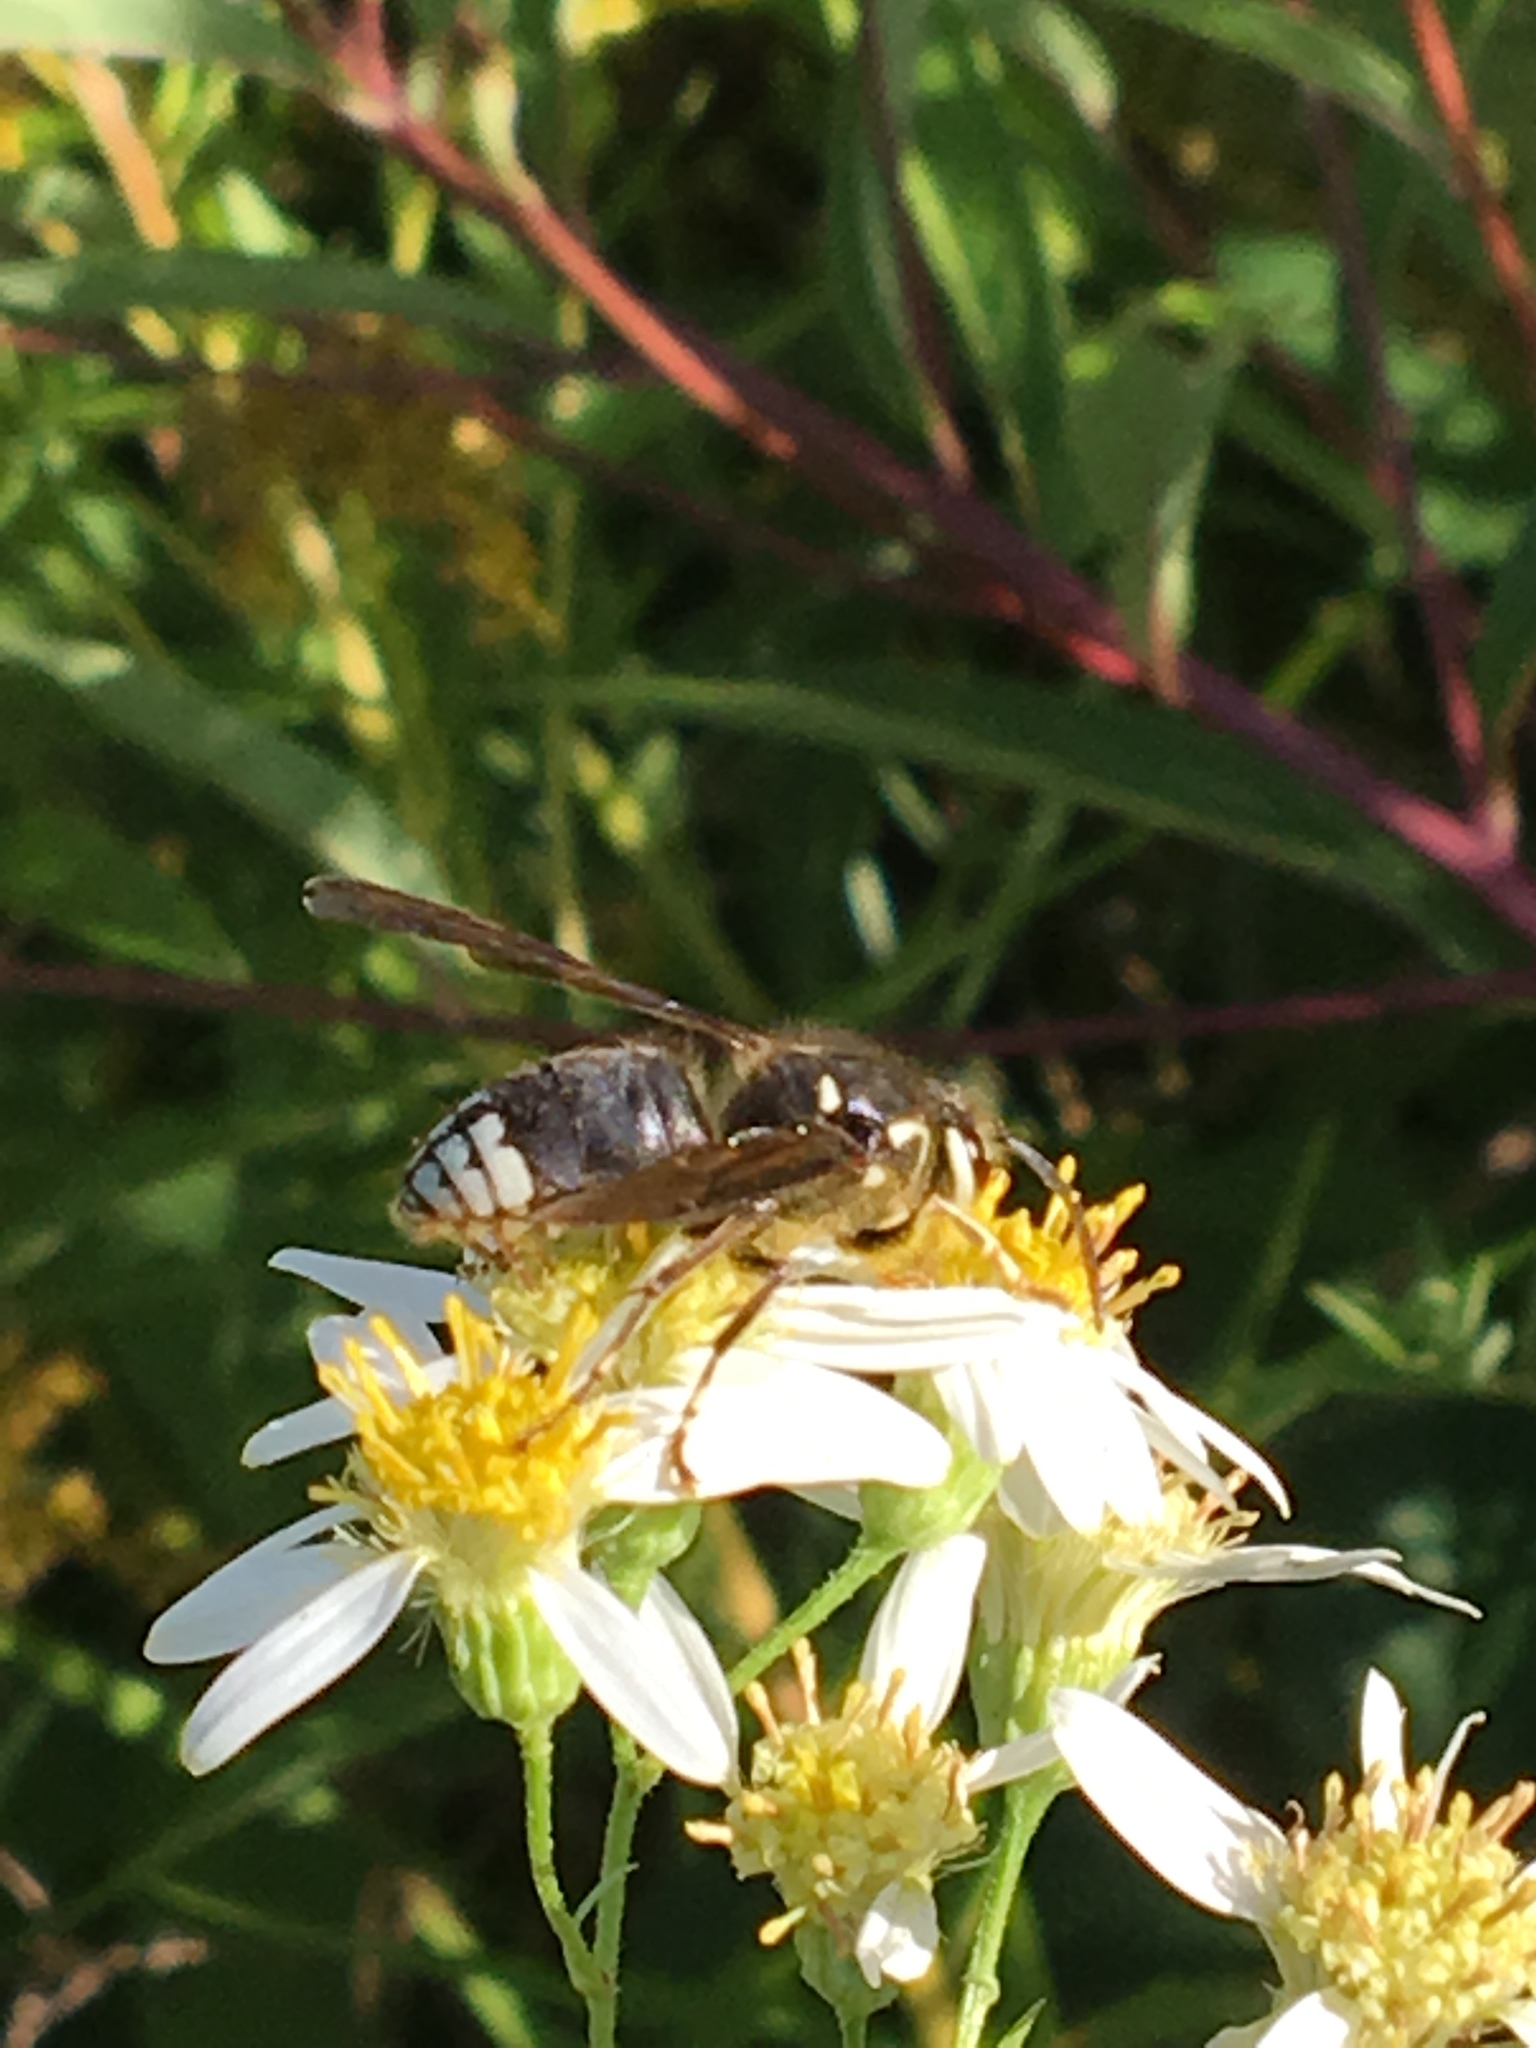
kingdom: Animalia
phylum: Arthropoda
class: Insecta
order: Hymenoptera
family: Vespidae
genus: Dolichovespula
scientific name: Dolichovespula maculata
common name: Bald-faced hornet
